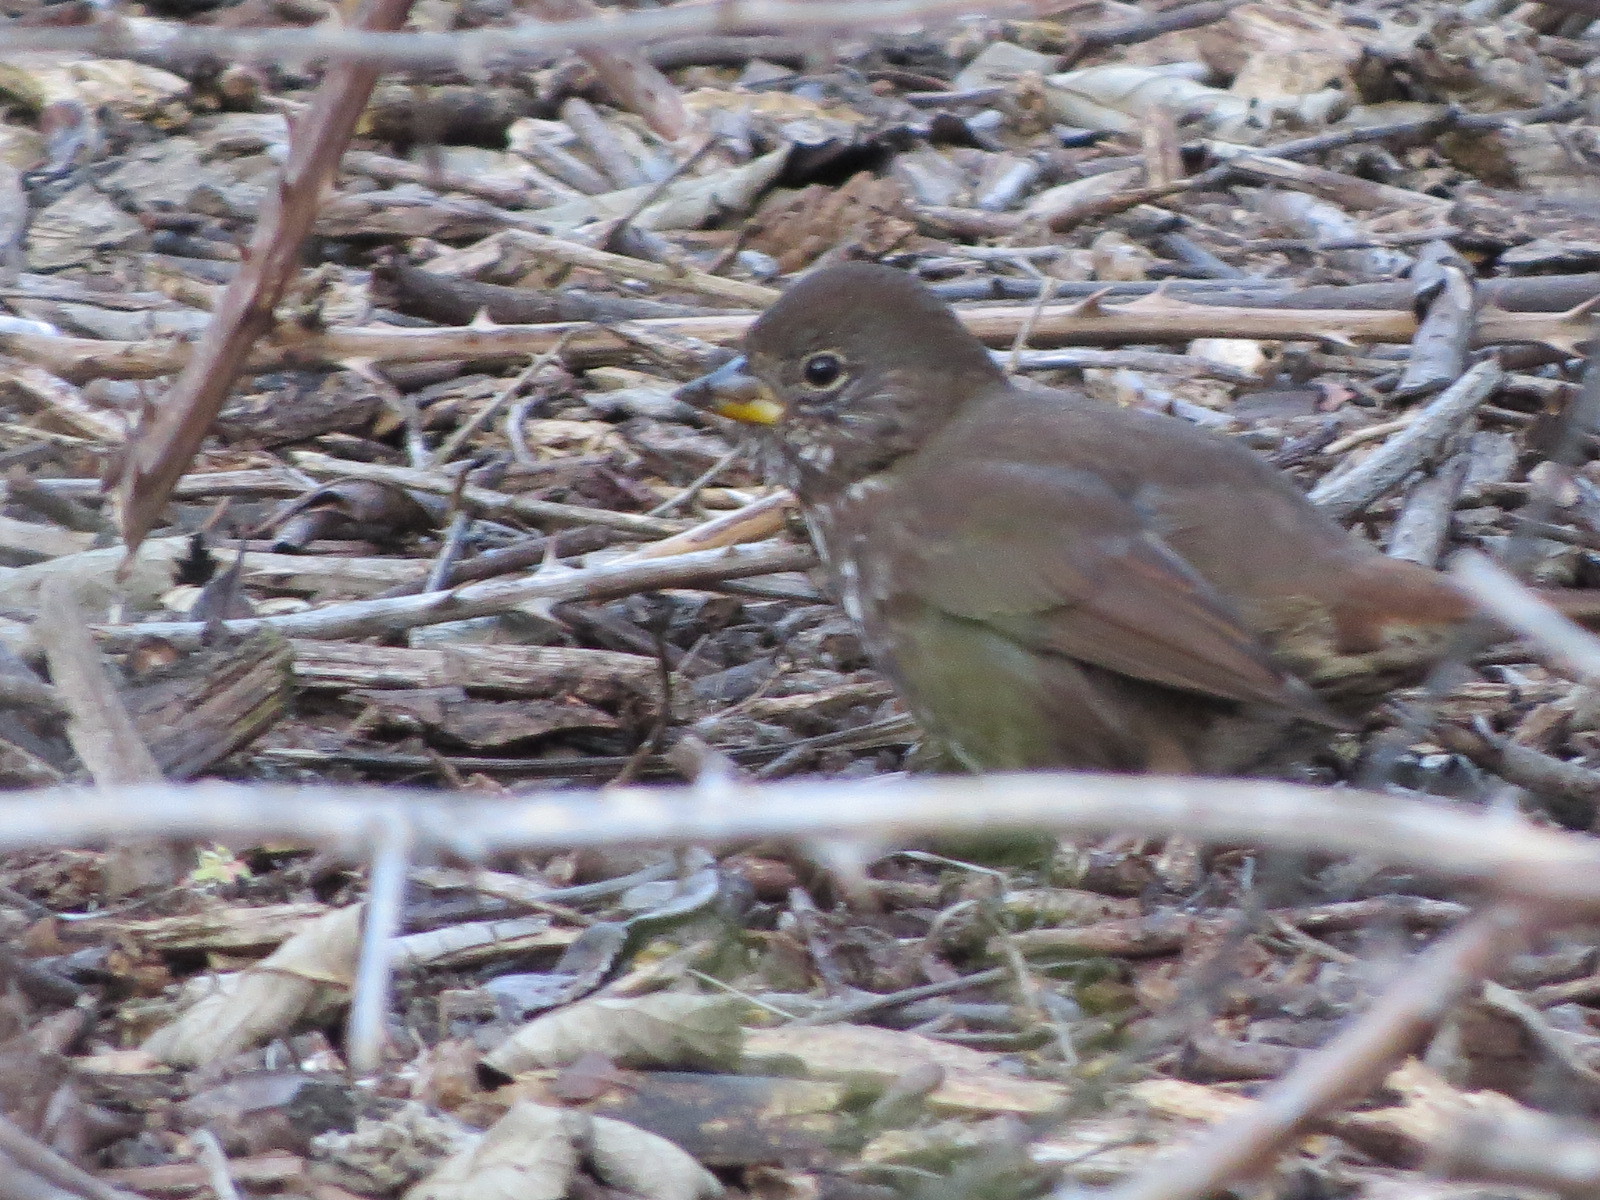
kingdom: Animalia
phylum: Chordata
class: Aves
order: Passeriformes
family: Passerellidae
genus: Passerella
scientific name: Passerella iliaca
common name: Fox sparrow
